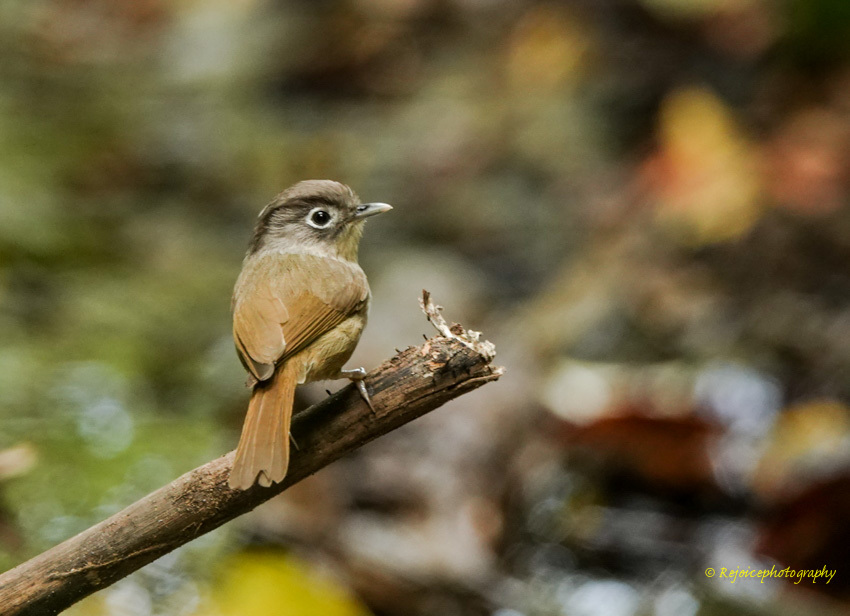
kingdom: Animalia
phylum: Chordata
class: Aves
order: Passeriformes
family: Pellorneidae
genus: Alcippe
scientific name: Alcippe nipalensis
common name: Nepal fulvetta
